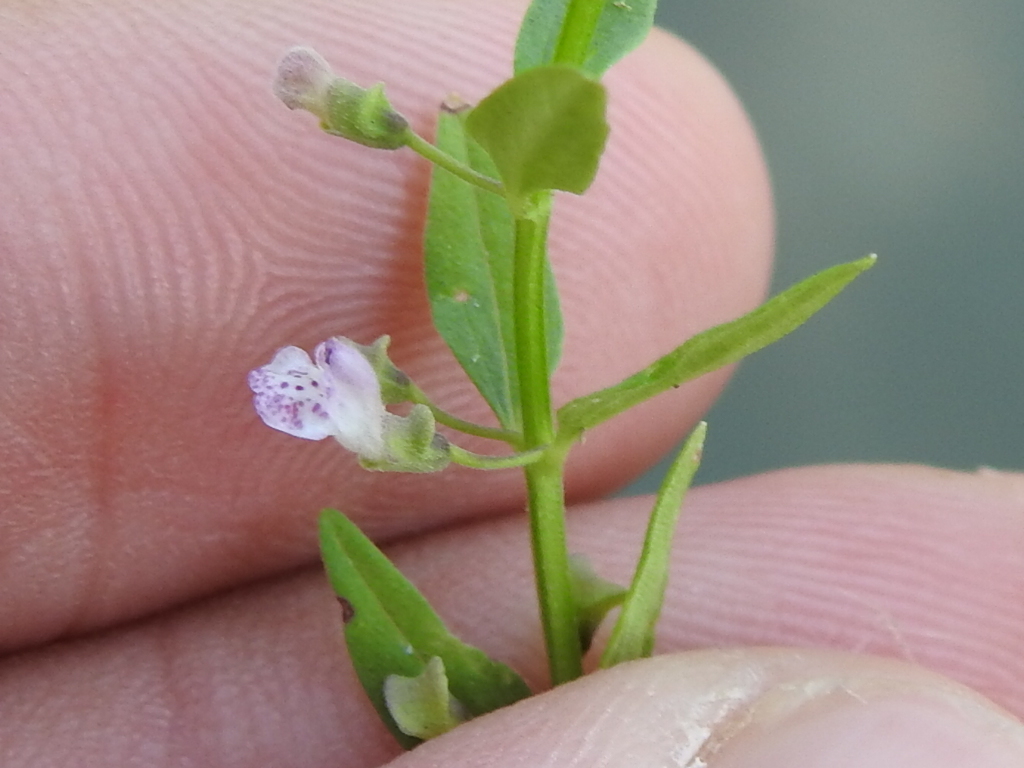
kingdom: Plantae
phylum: Tracheophyta
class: Magnoliopsida
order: Lamiales
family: Lamiaceae
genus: Scutellaria
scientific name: Scutellaria racemosa
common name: South american skullcap
